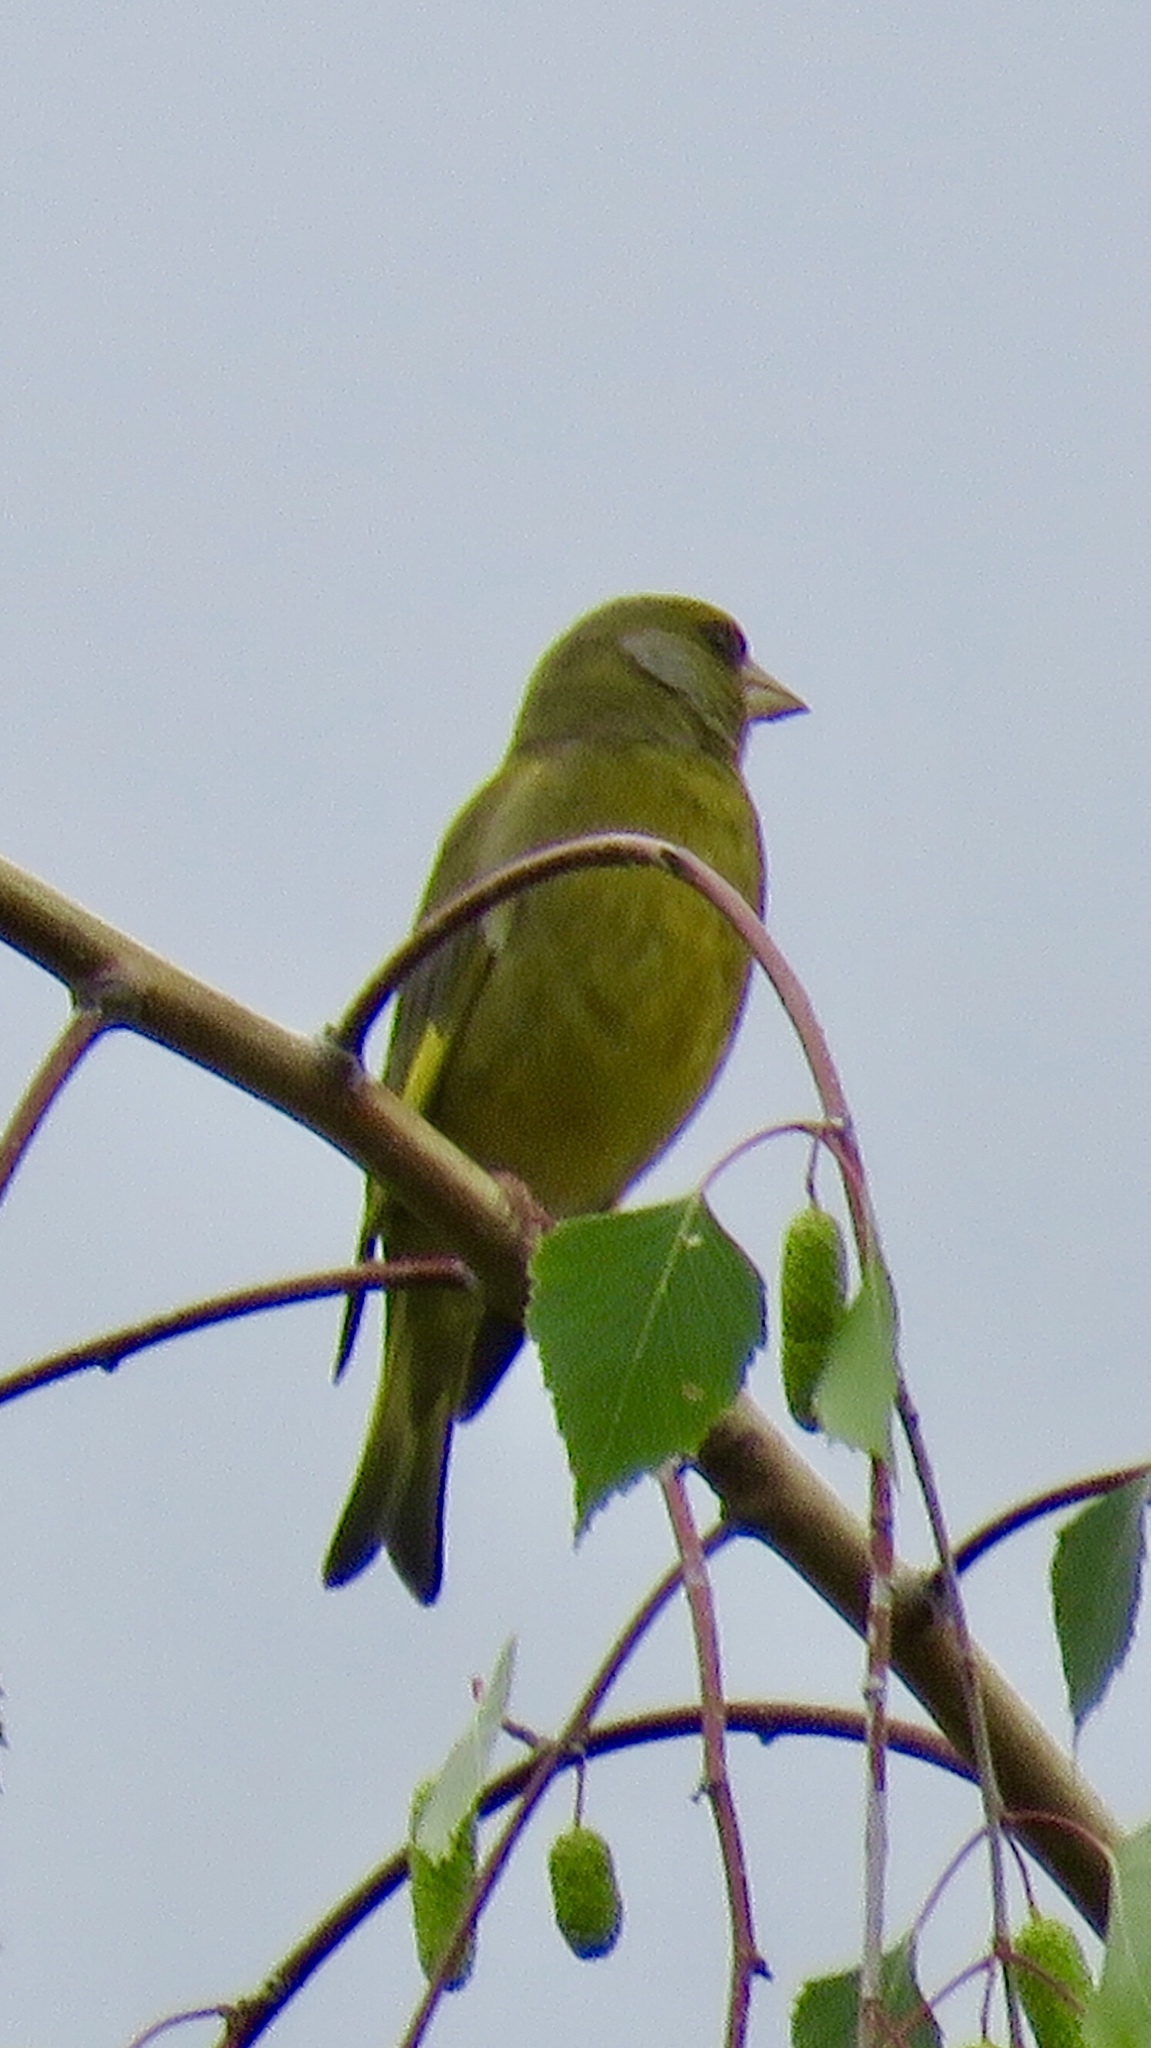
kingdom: Plantae
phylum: Tracheophyta
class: Liliopsida
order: Poales
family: Poaceae
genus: Chloris
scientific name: Chloris chloris
